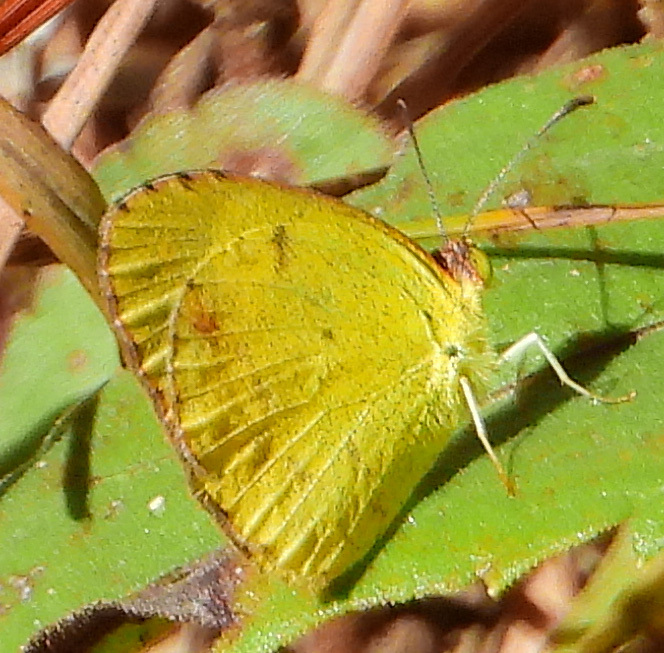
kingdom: Animalia
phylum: Arthropoda
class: Insecta
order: Lepidoptera
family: Pieridae
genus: Pyrisitia
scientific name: Pyrisitia lisa
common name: Little yellow
